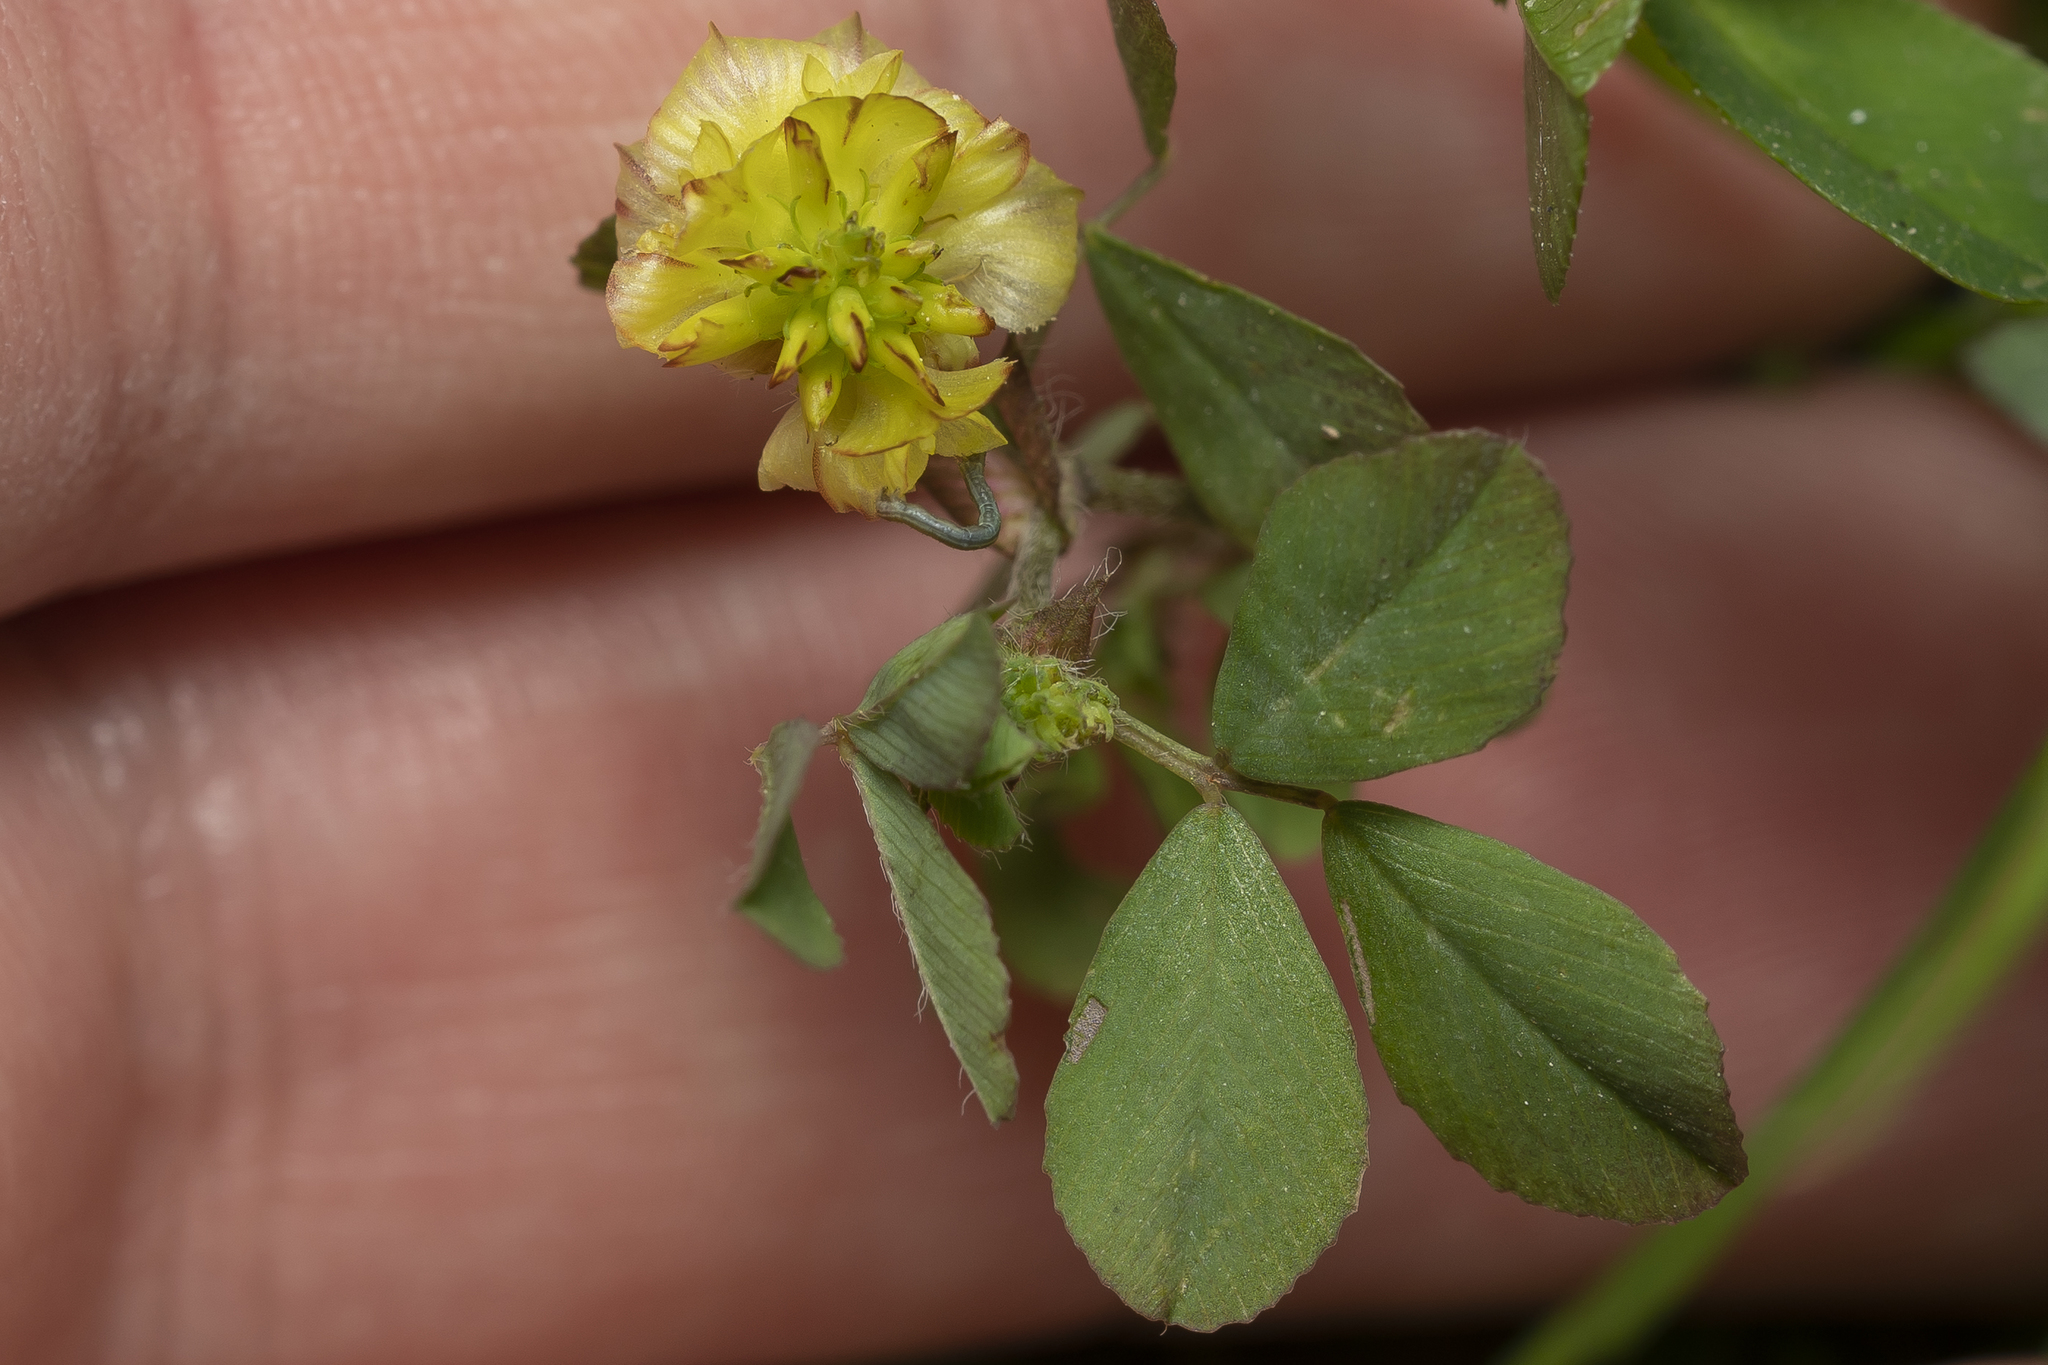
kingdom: Plantae
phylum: Tracheophyta
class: Magnoliopsida
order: Fabales
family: Fabaceae
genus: Trifolium
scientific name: Trifolium campestre
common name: Field clover
